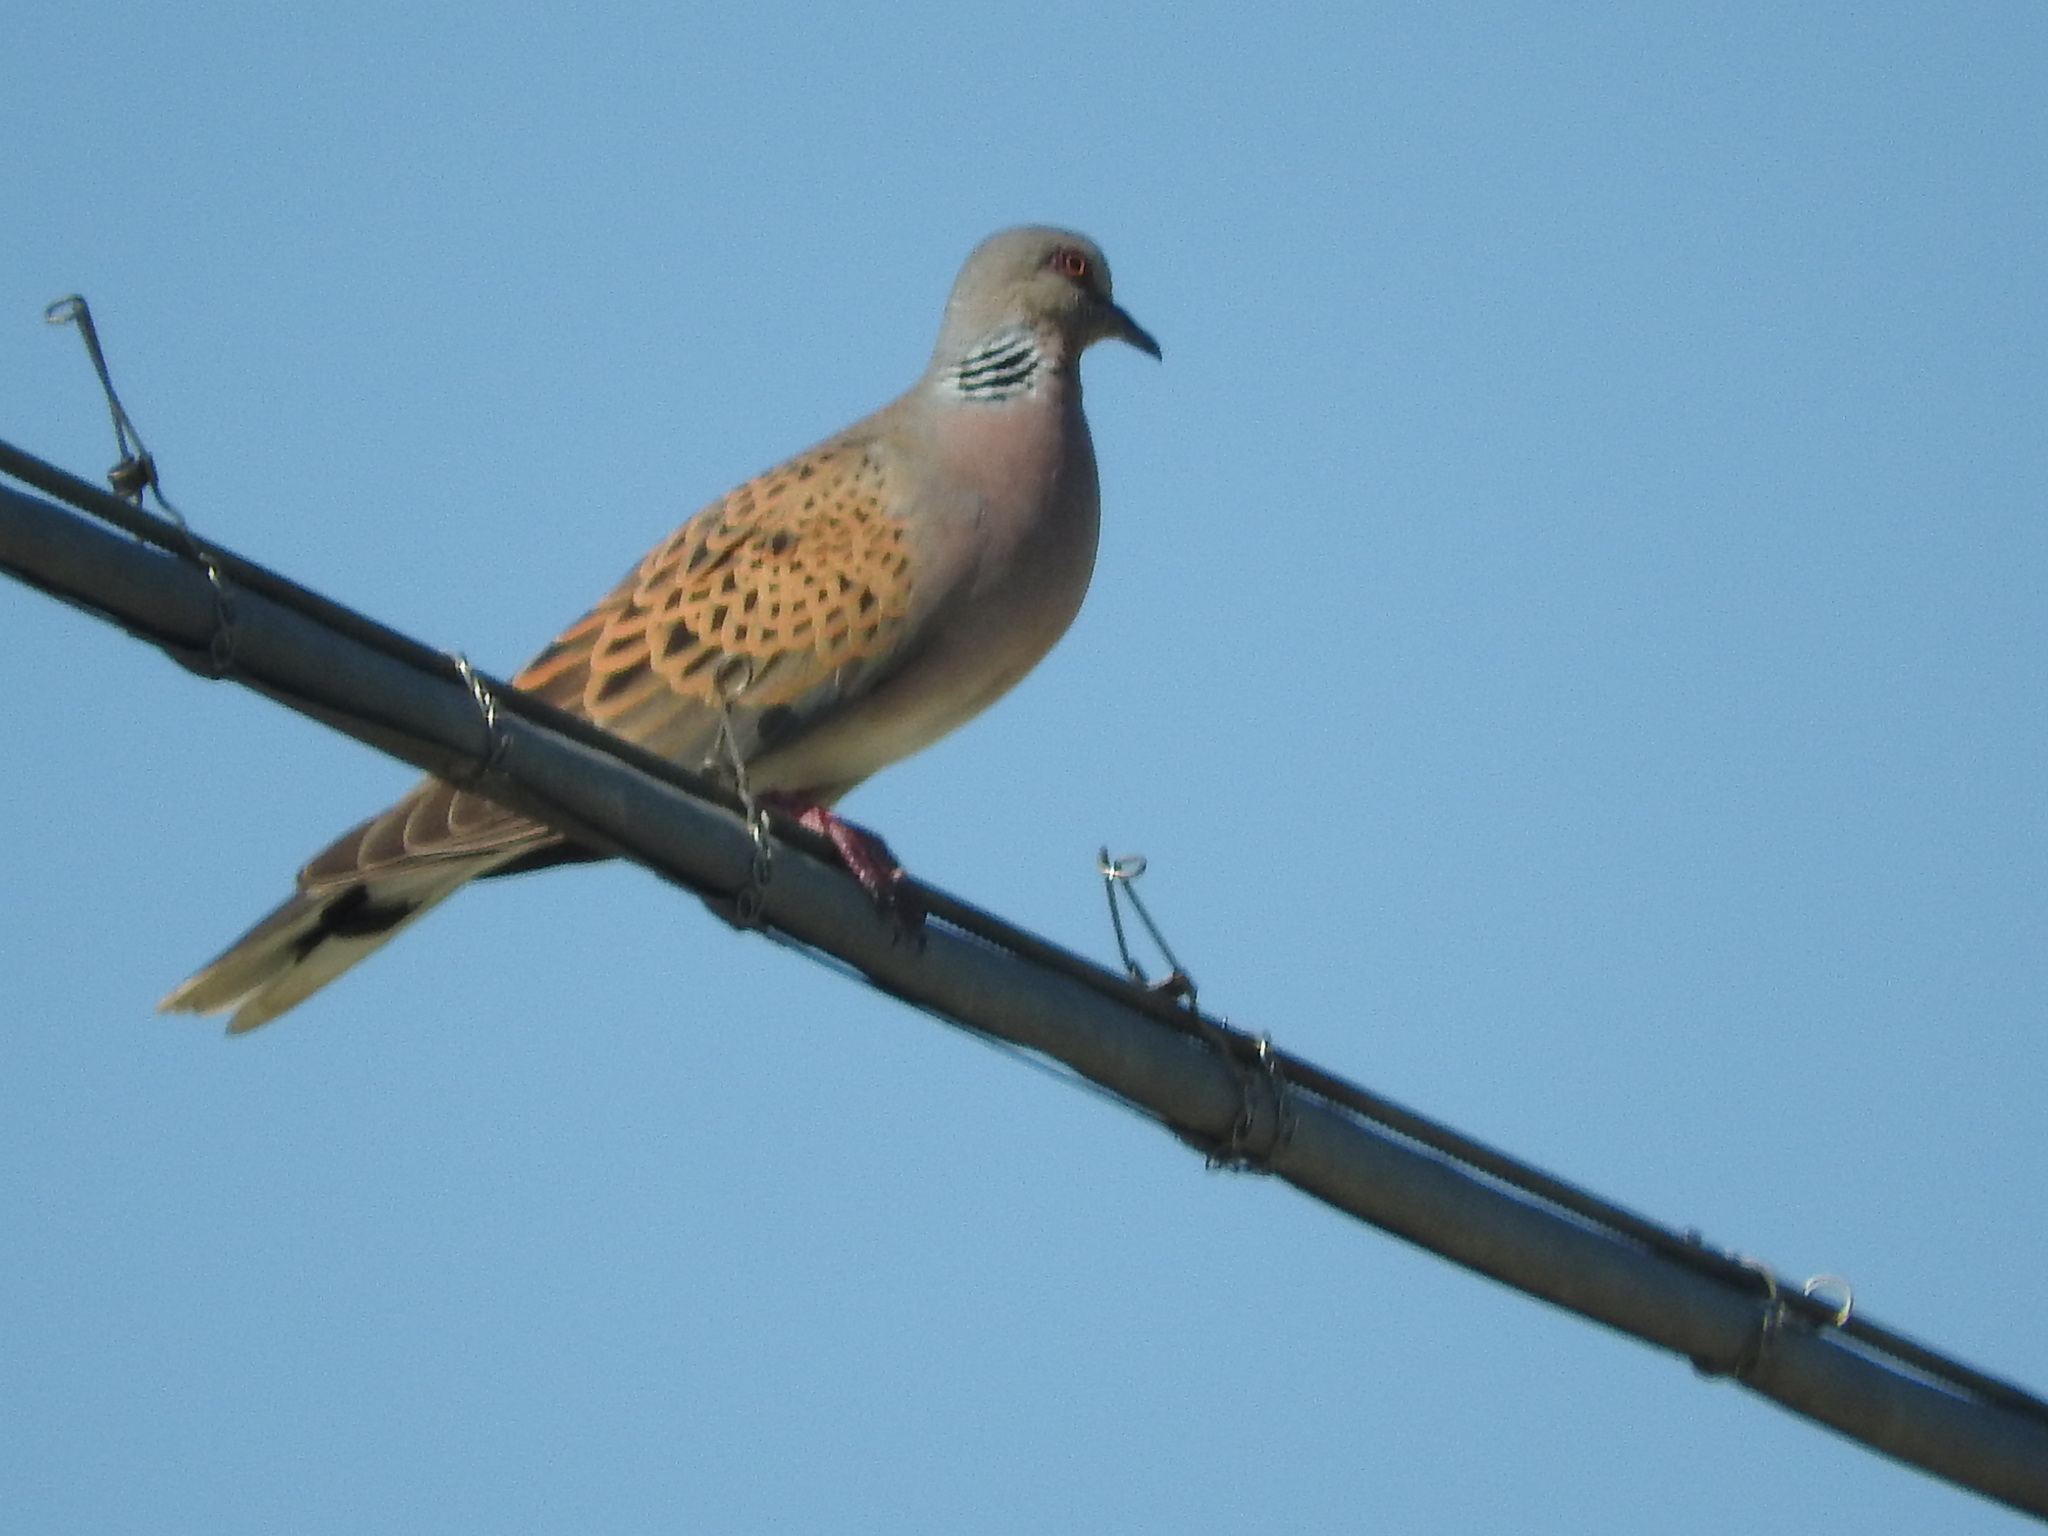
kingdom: Animalia
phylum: Chordata
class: Aves
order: Columbiformes
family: Columbidae
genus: Streptopelia
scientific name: Streptopelia turtur
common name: European turtle dove
